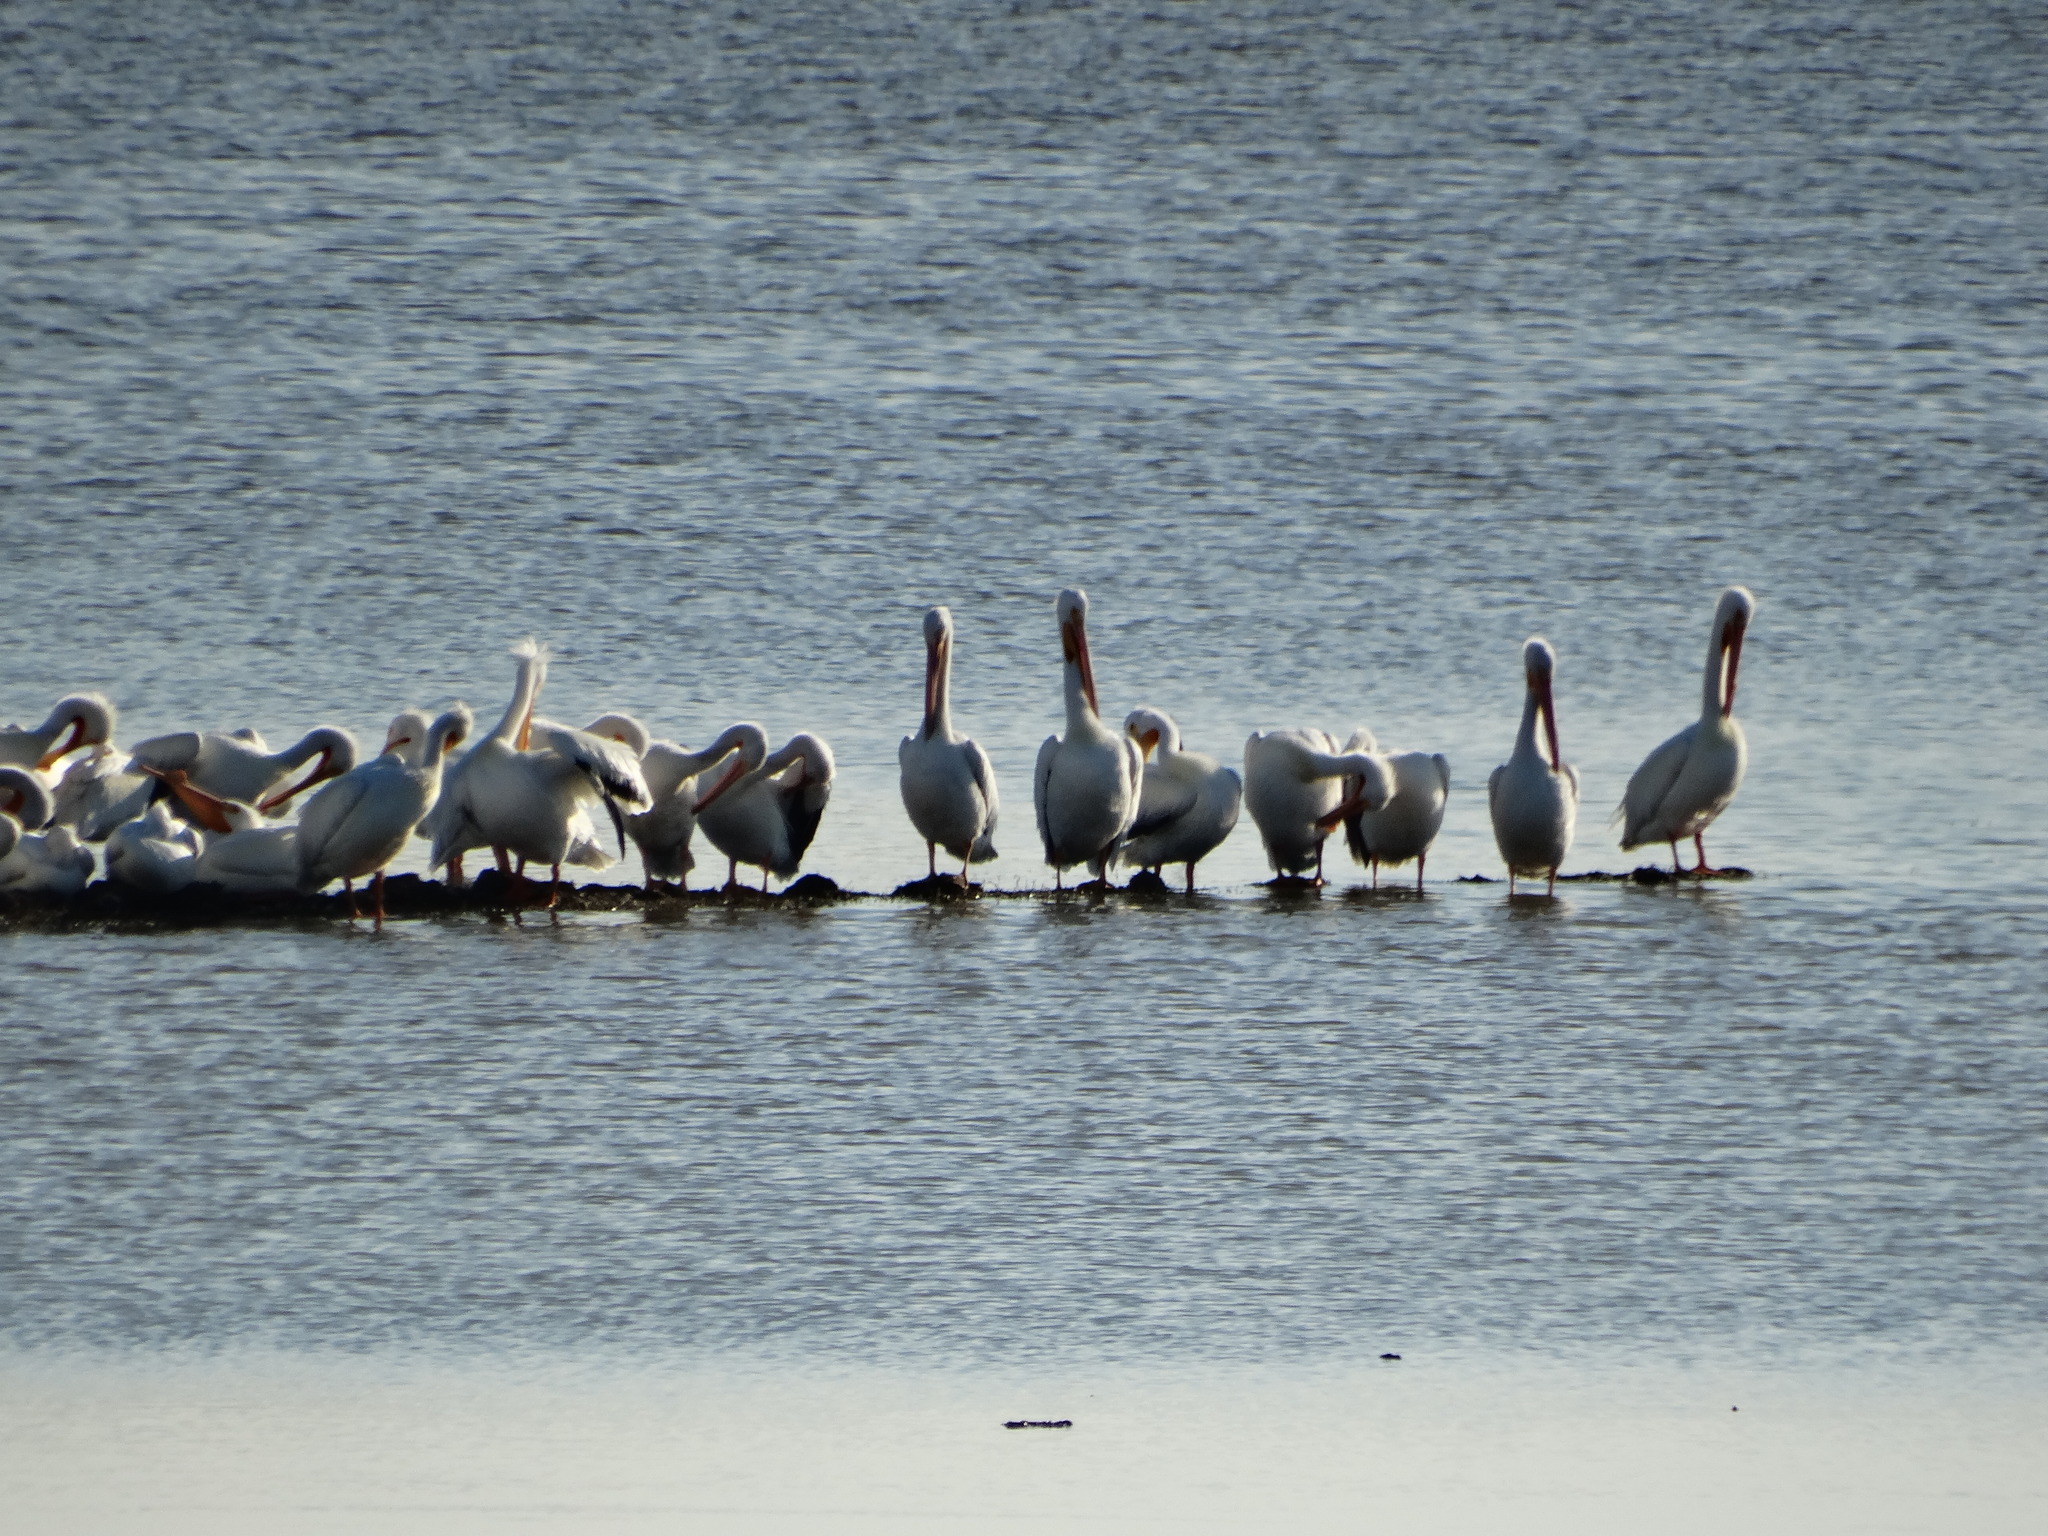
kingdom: Animalia
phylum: Chordata
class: Aves
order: Pelecaniformes
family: Pelecanidae
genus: Pelecanus
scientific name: Pelecanus erythrorhynchos
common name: American white pelican
